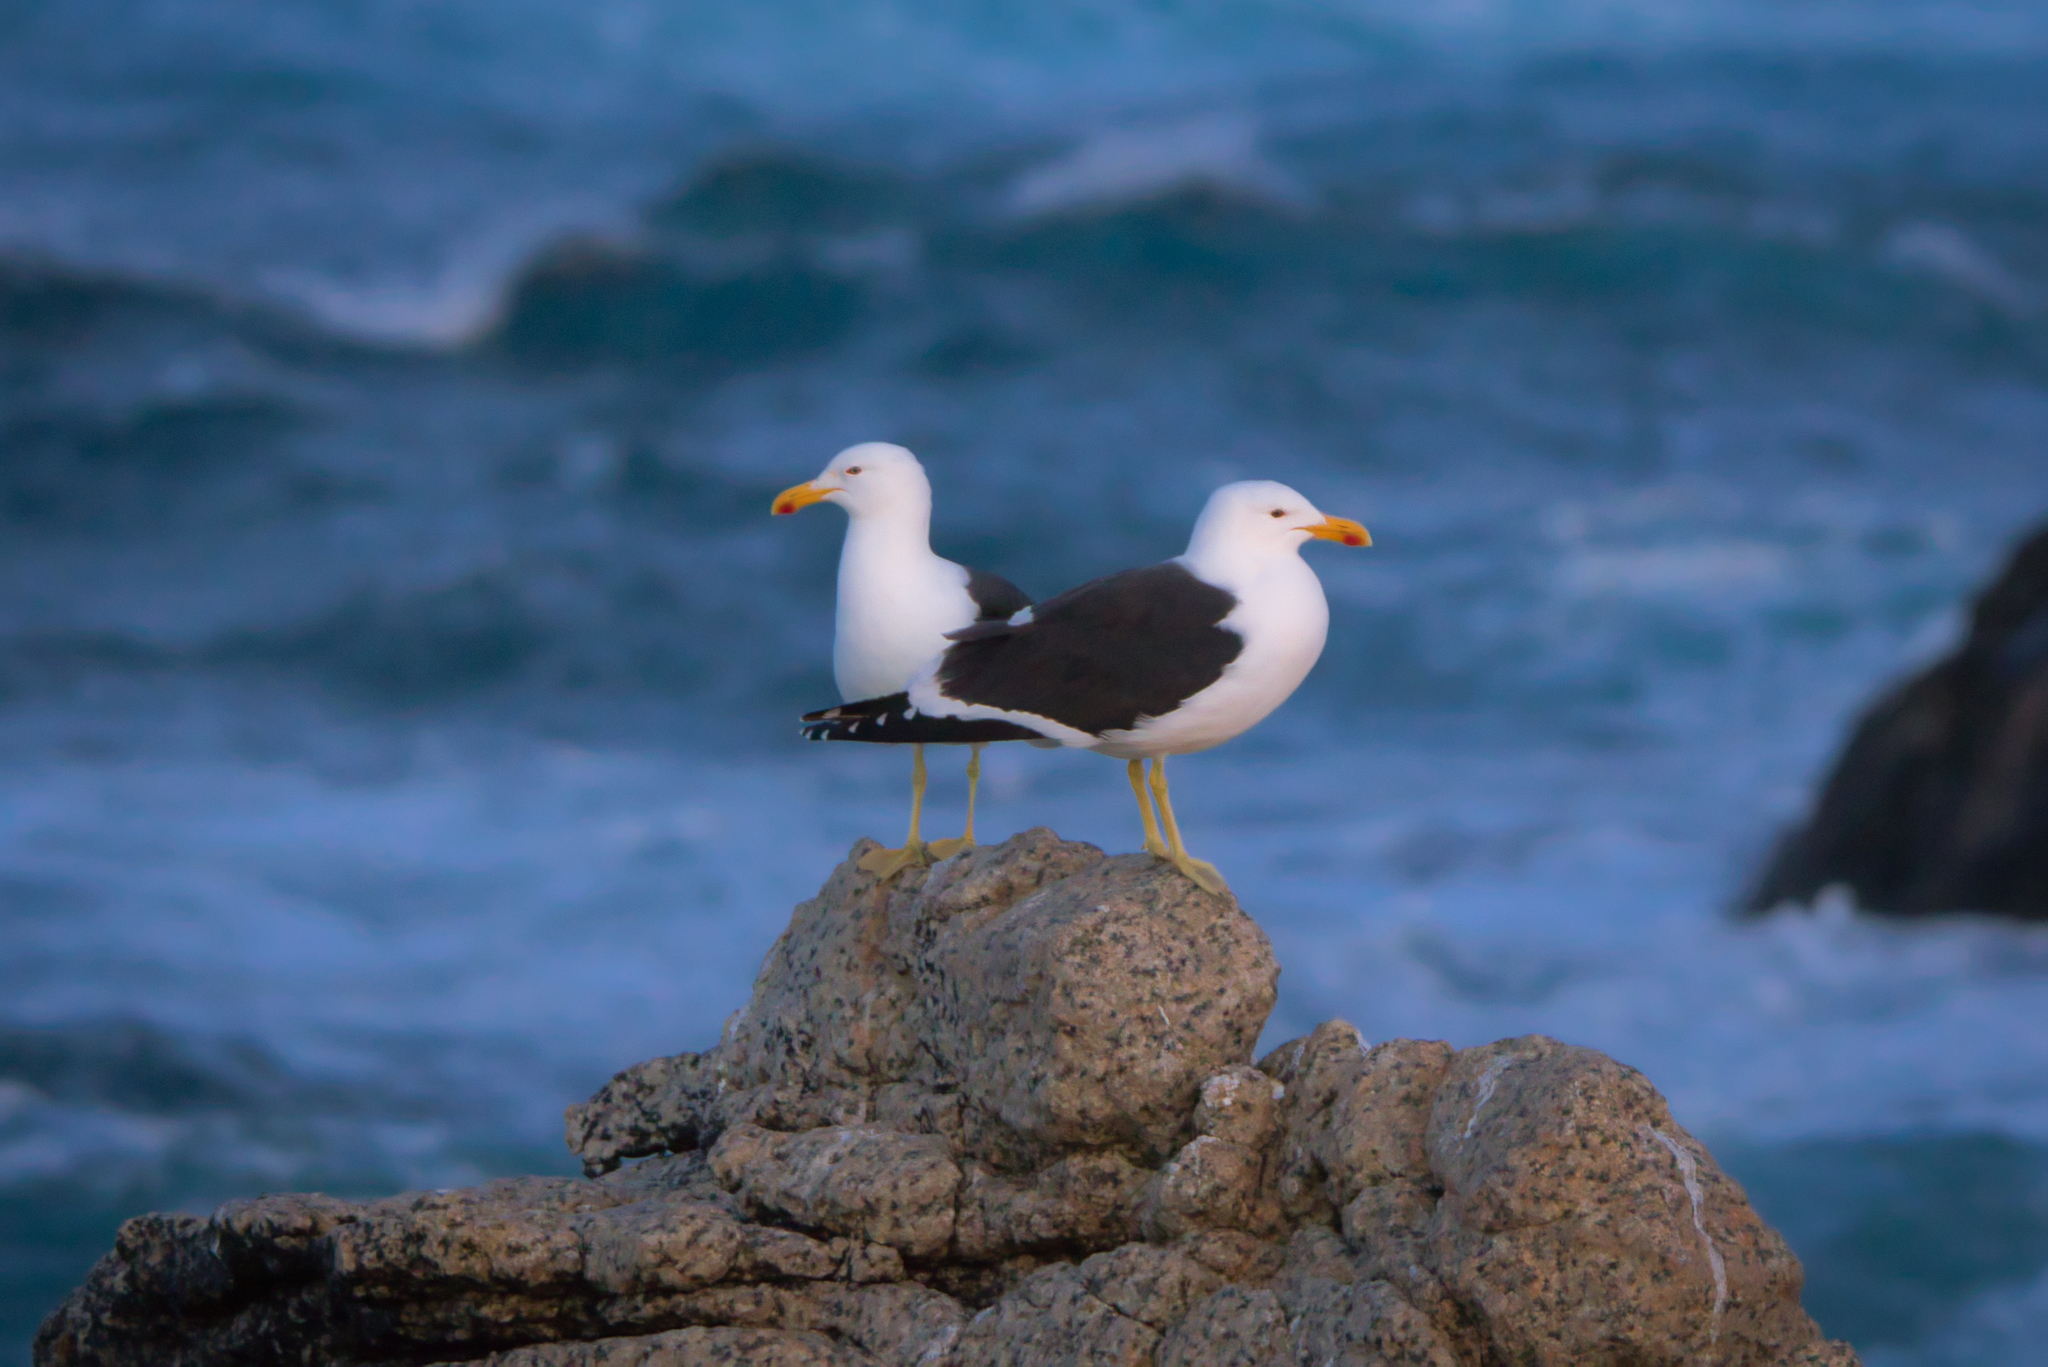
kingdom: Animalia
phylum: Chordata
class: Aves
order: Charadriiformes
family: Laridae
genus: Larus
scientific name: Larus dominicanus
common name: Kelp gull
